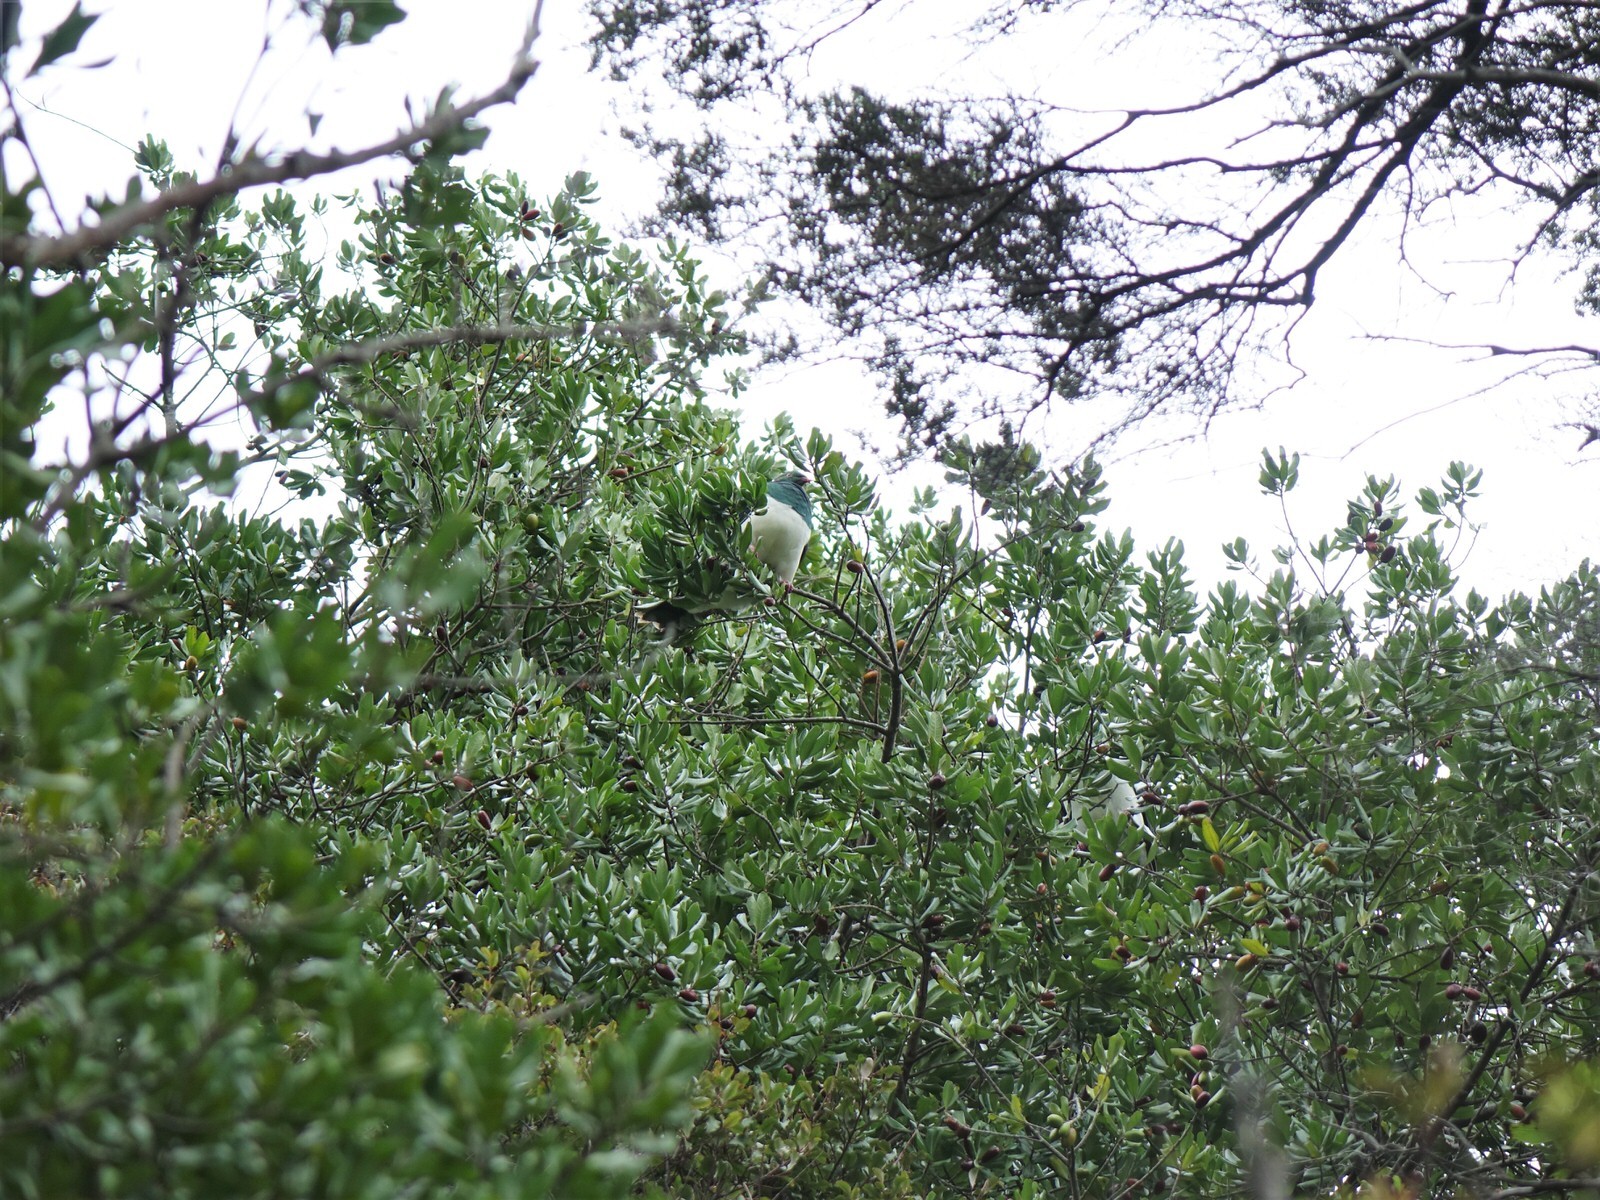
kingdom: Animalia
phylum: Chordata
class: Aves
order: Columbiformes
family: Columbidae
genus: Hemiphaga
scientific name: Hemiphaga novaeseelandiae
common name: New zealand pigeon
